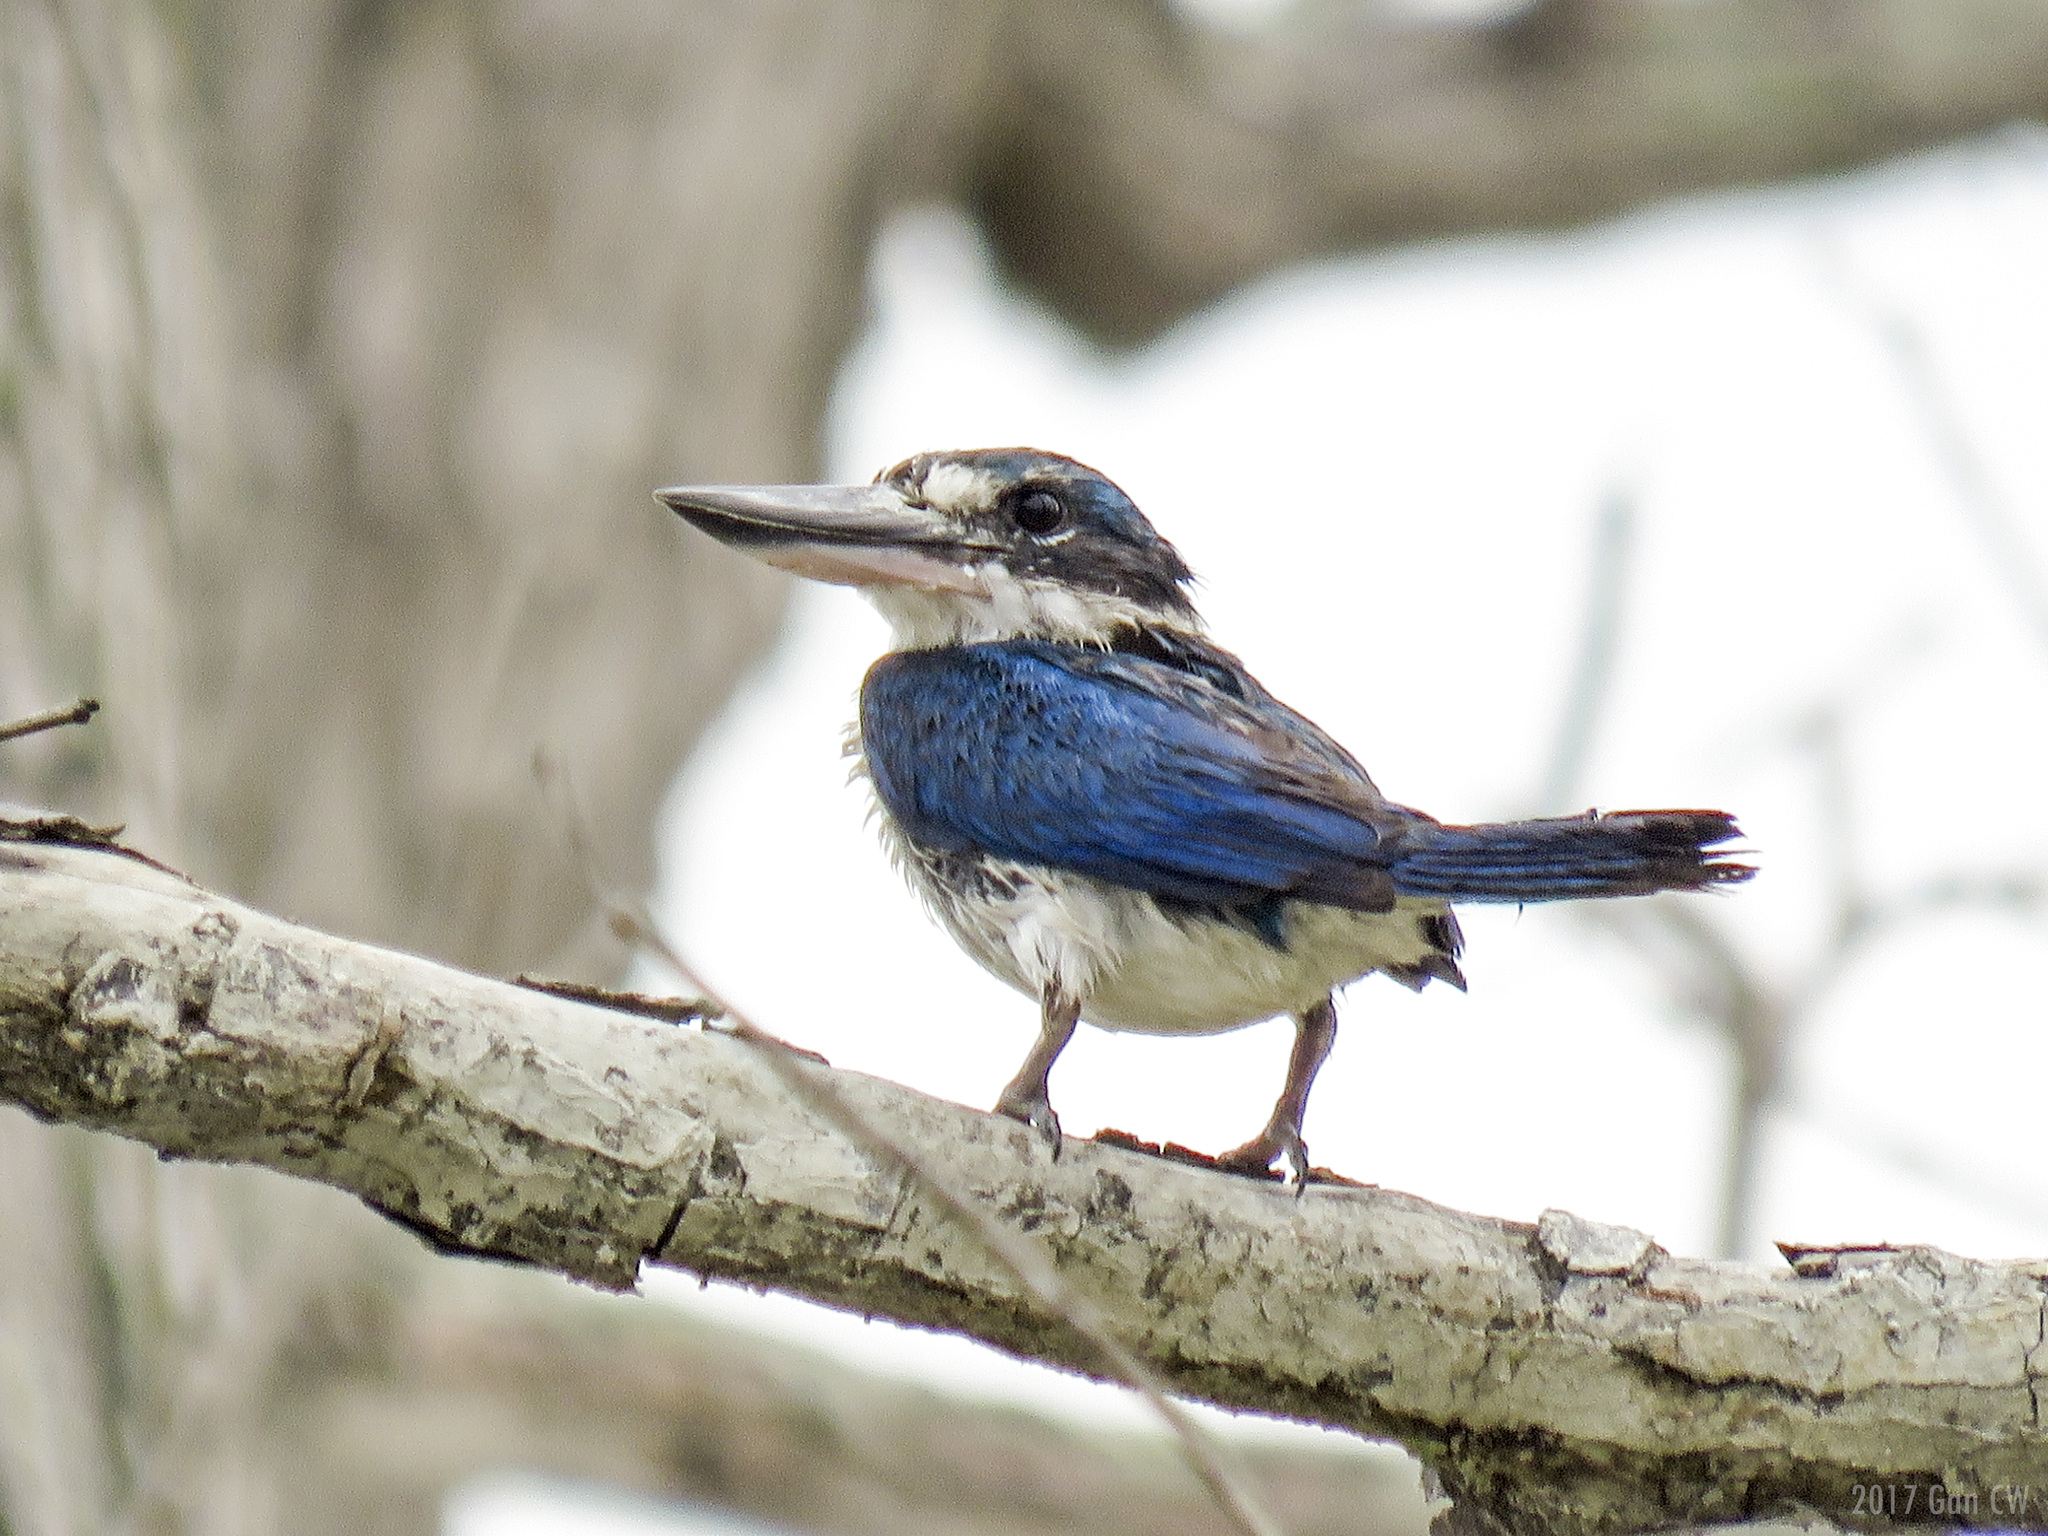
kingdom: Animalia
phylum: Chordata
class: Aves
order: Coraciiformes
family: Alcedinidae
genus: Todiramphus
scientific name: Todiramphus chloris
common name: Collared kingfisher
